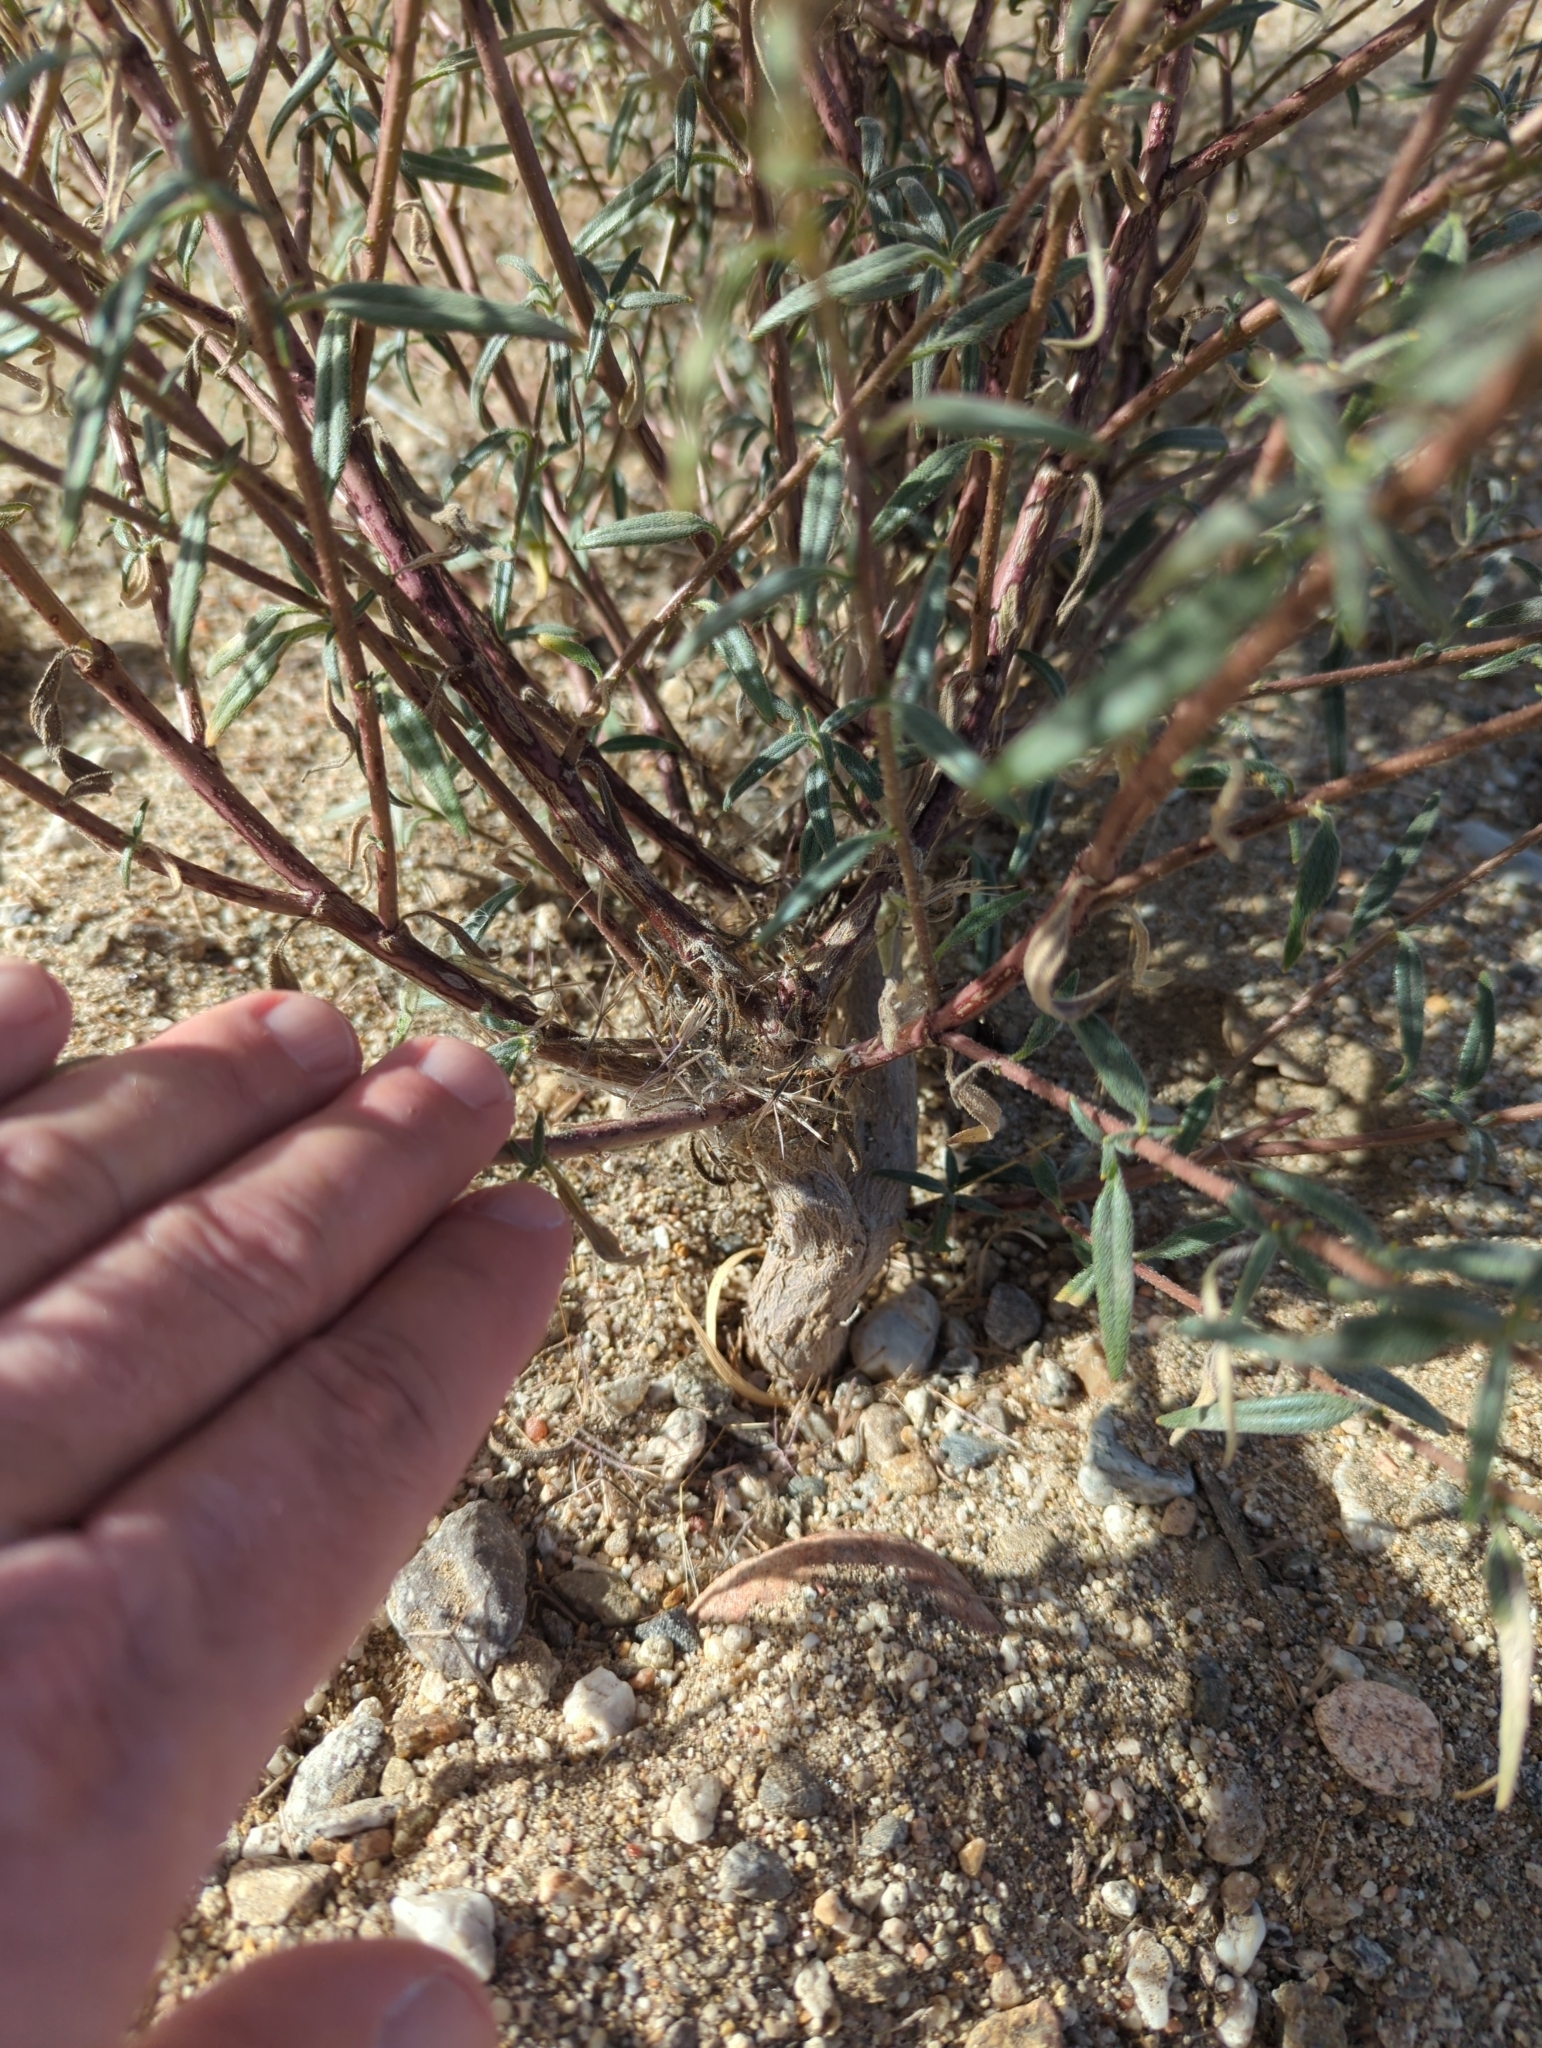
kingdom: Plantae
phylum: Tracheophyta
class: Magnoliopsida
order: Asterales
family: Asteraceae
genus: Palafoxia
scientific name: Palafoxia arida
